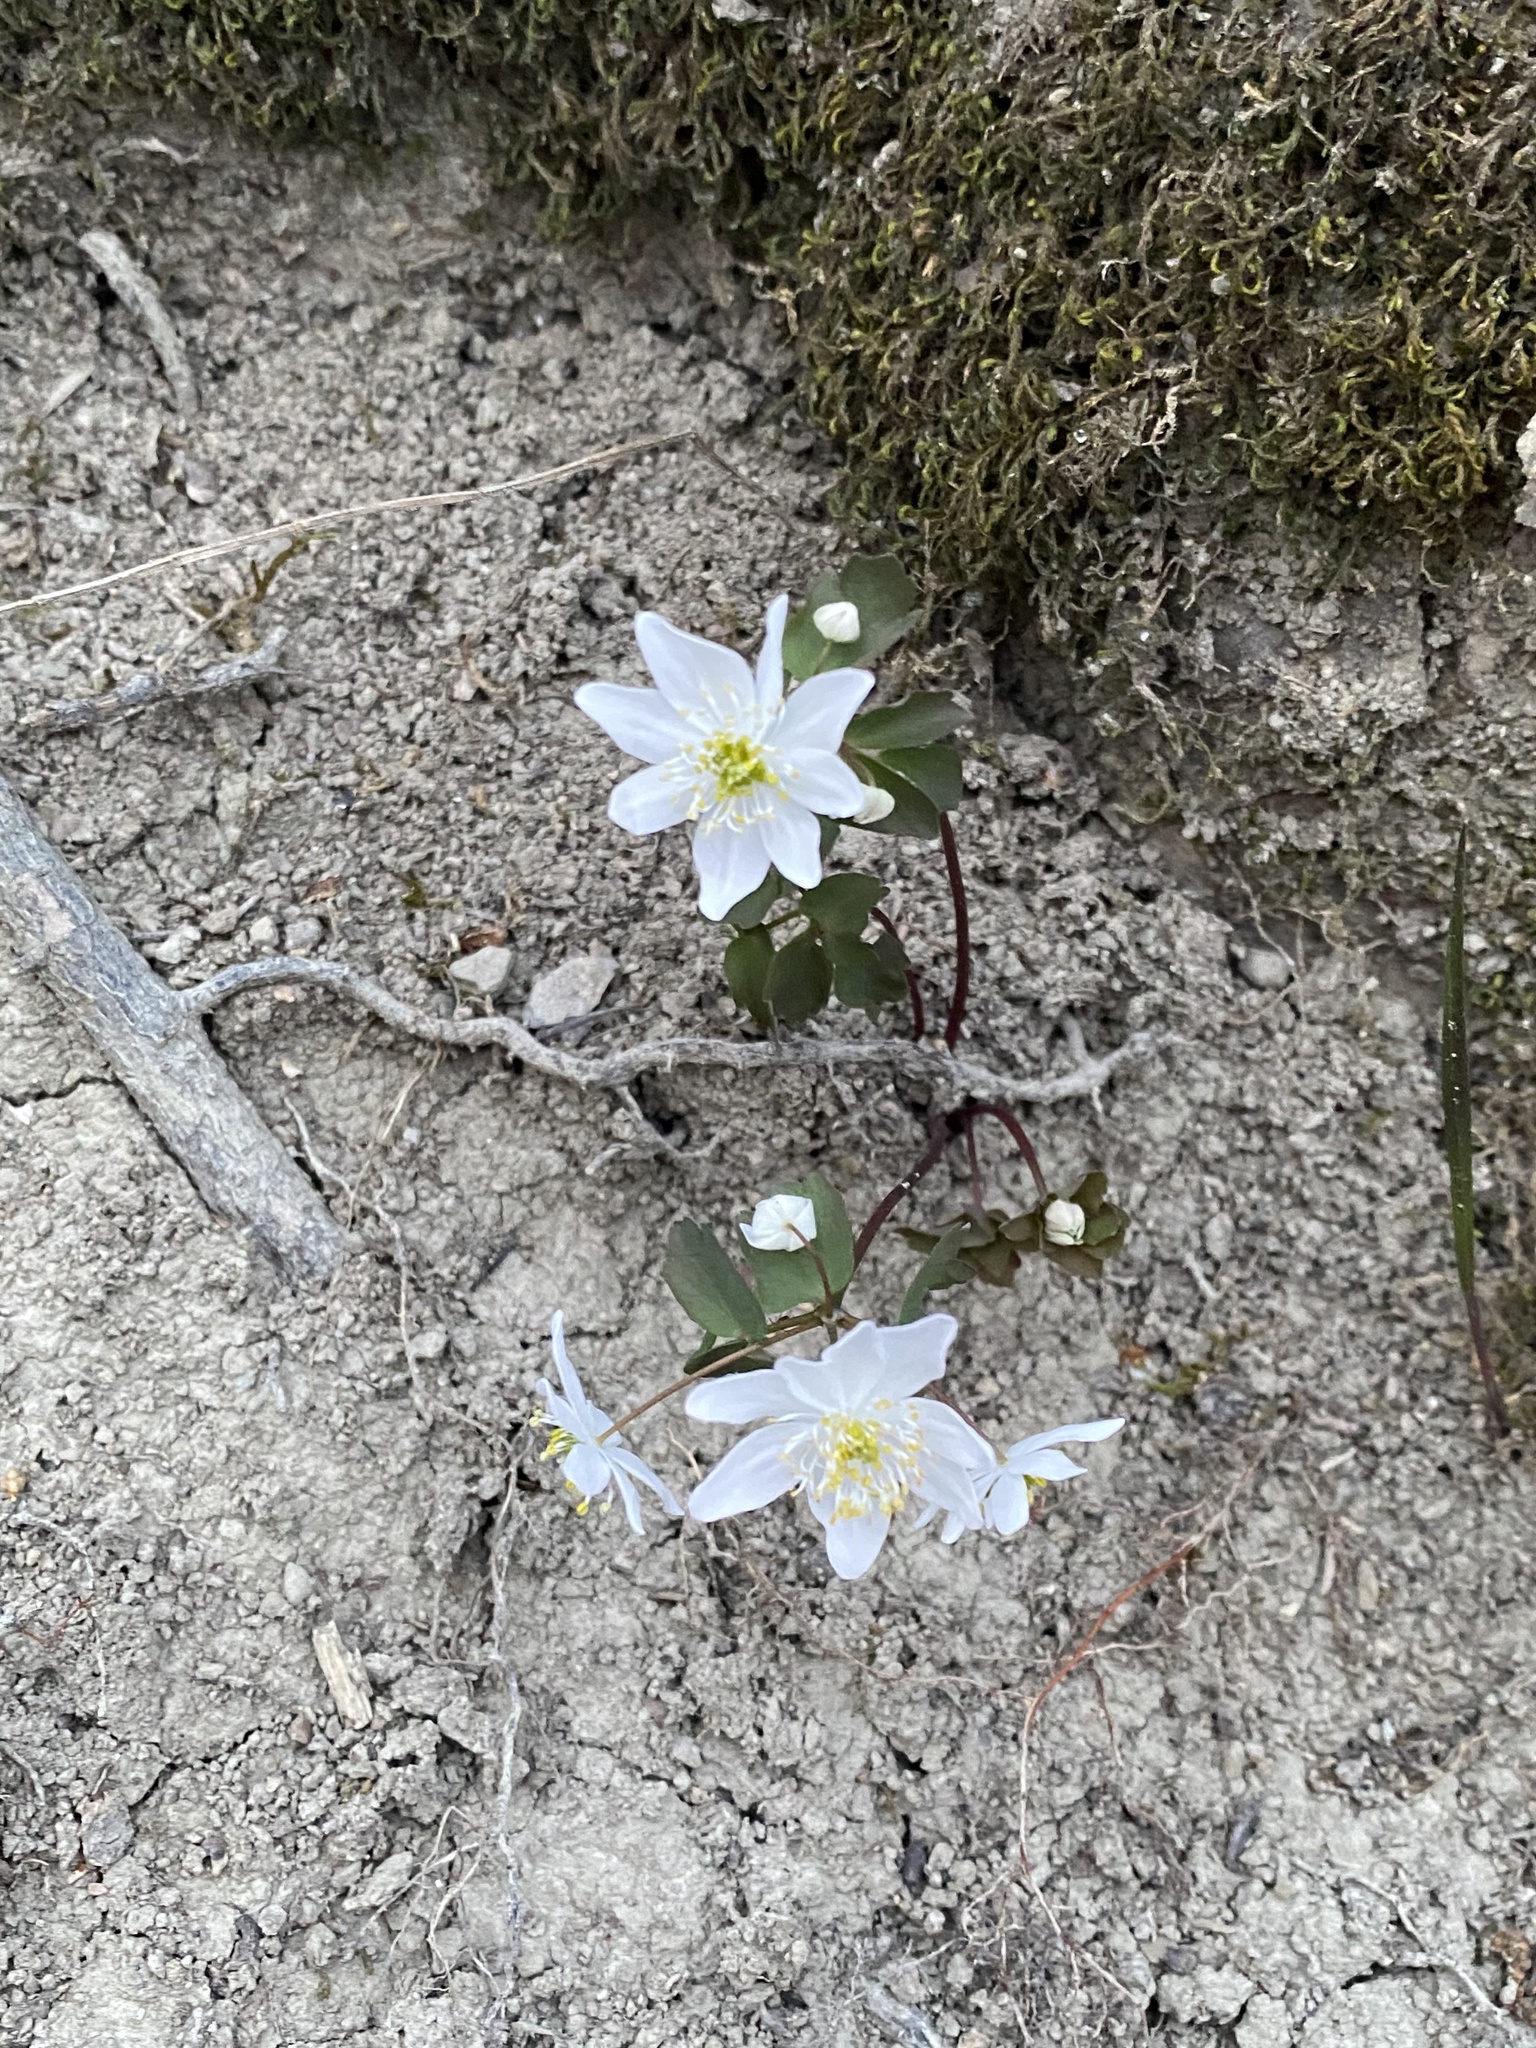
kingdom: Plantae
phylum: Tracheophyta
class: Magnoliopsida
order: Ranunculales
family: Ranunculaceae
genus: Thalictrum
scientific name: Thalictrum thalictroides
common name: Rue-anemone
